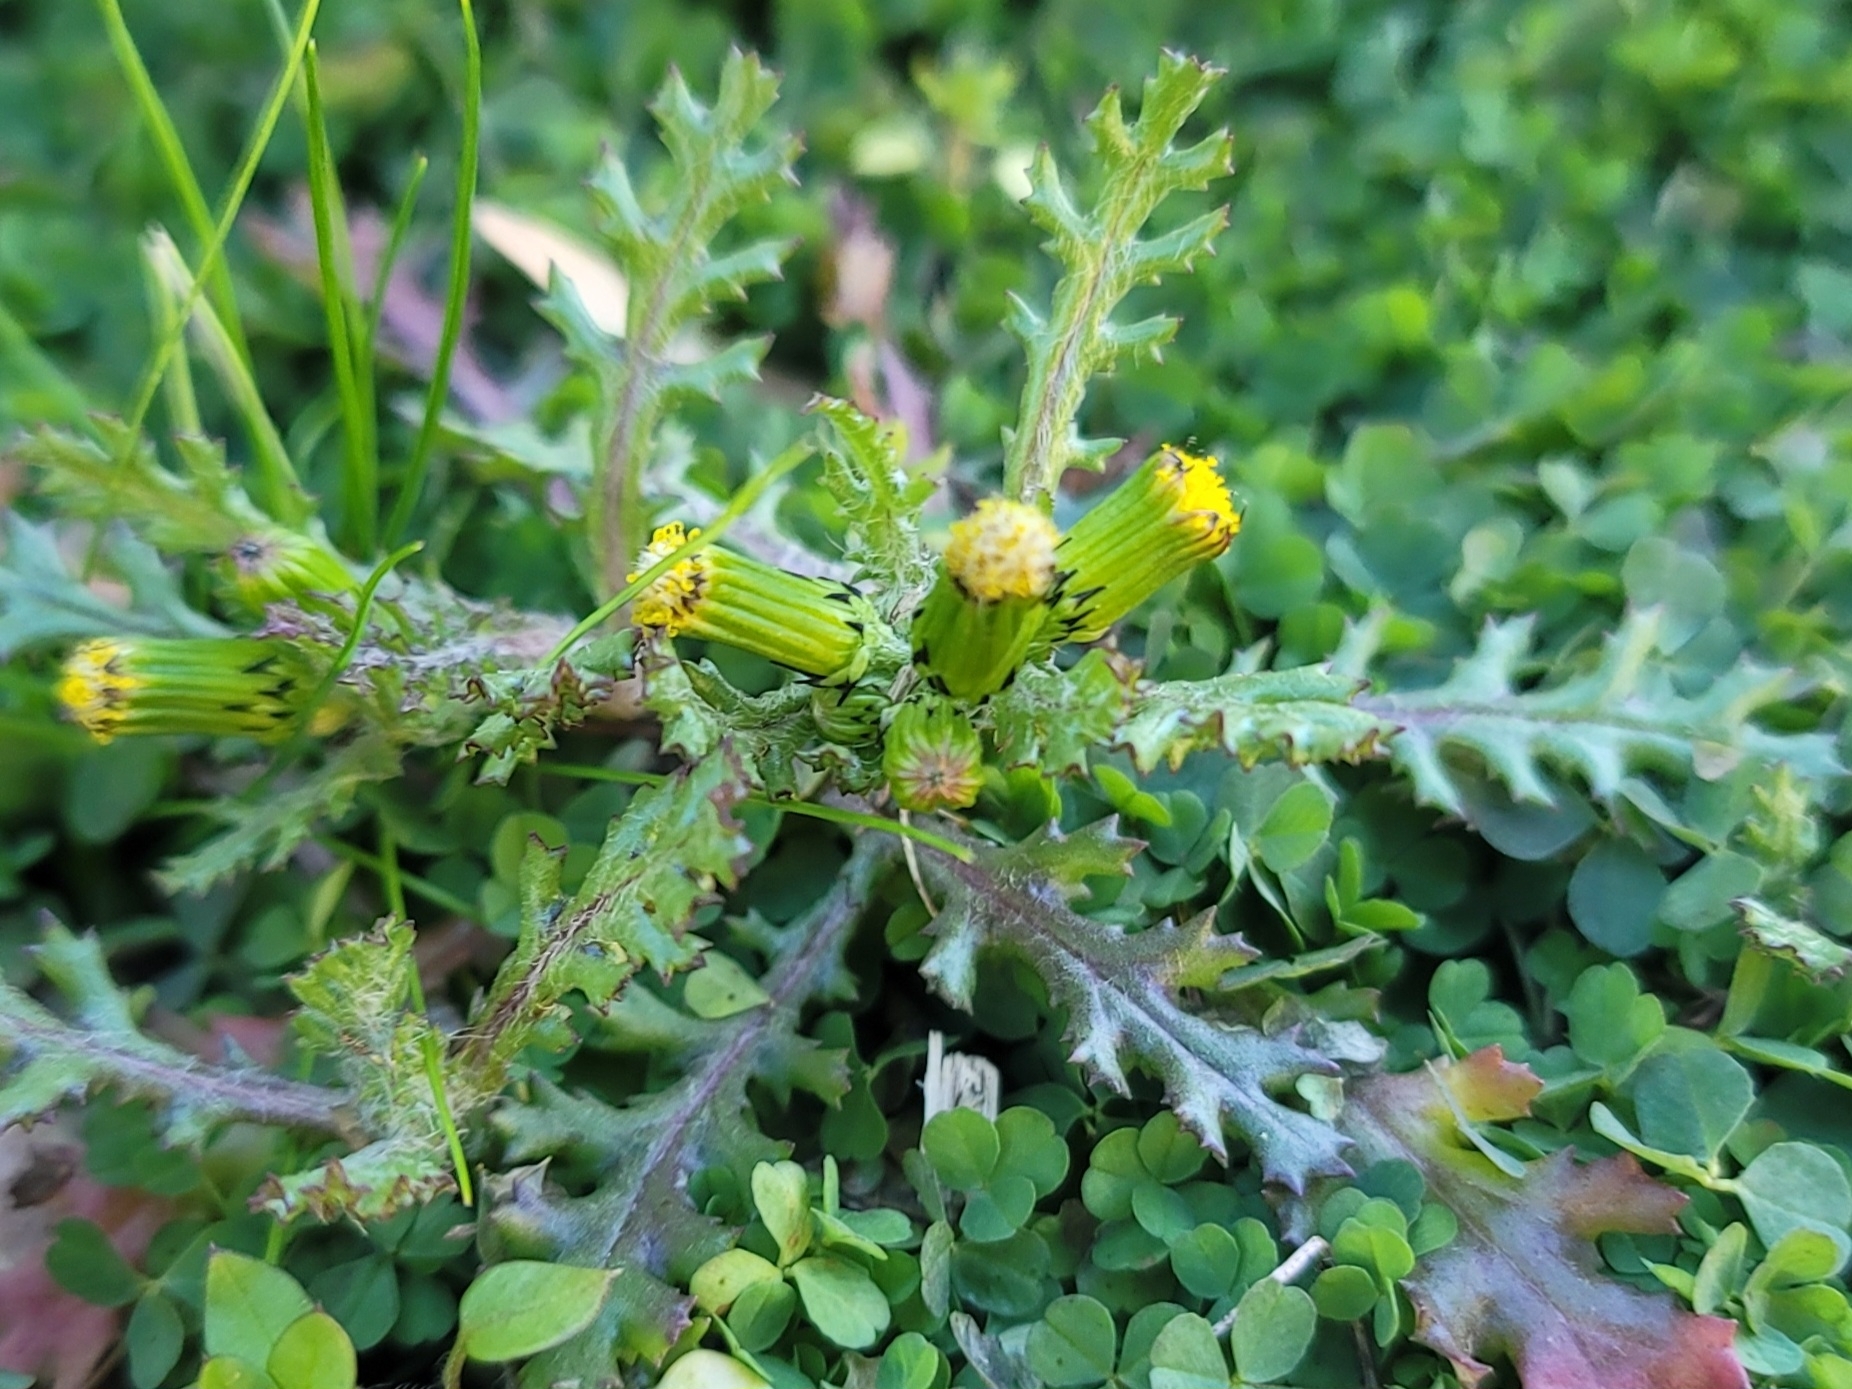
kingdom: Plantae
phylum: Tracheophyta
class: Magnoliopsida
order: Asterales
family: Asteraceae
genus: Senecio
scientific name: Senecio vulgaris
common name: Old-man-in-the-spring
